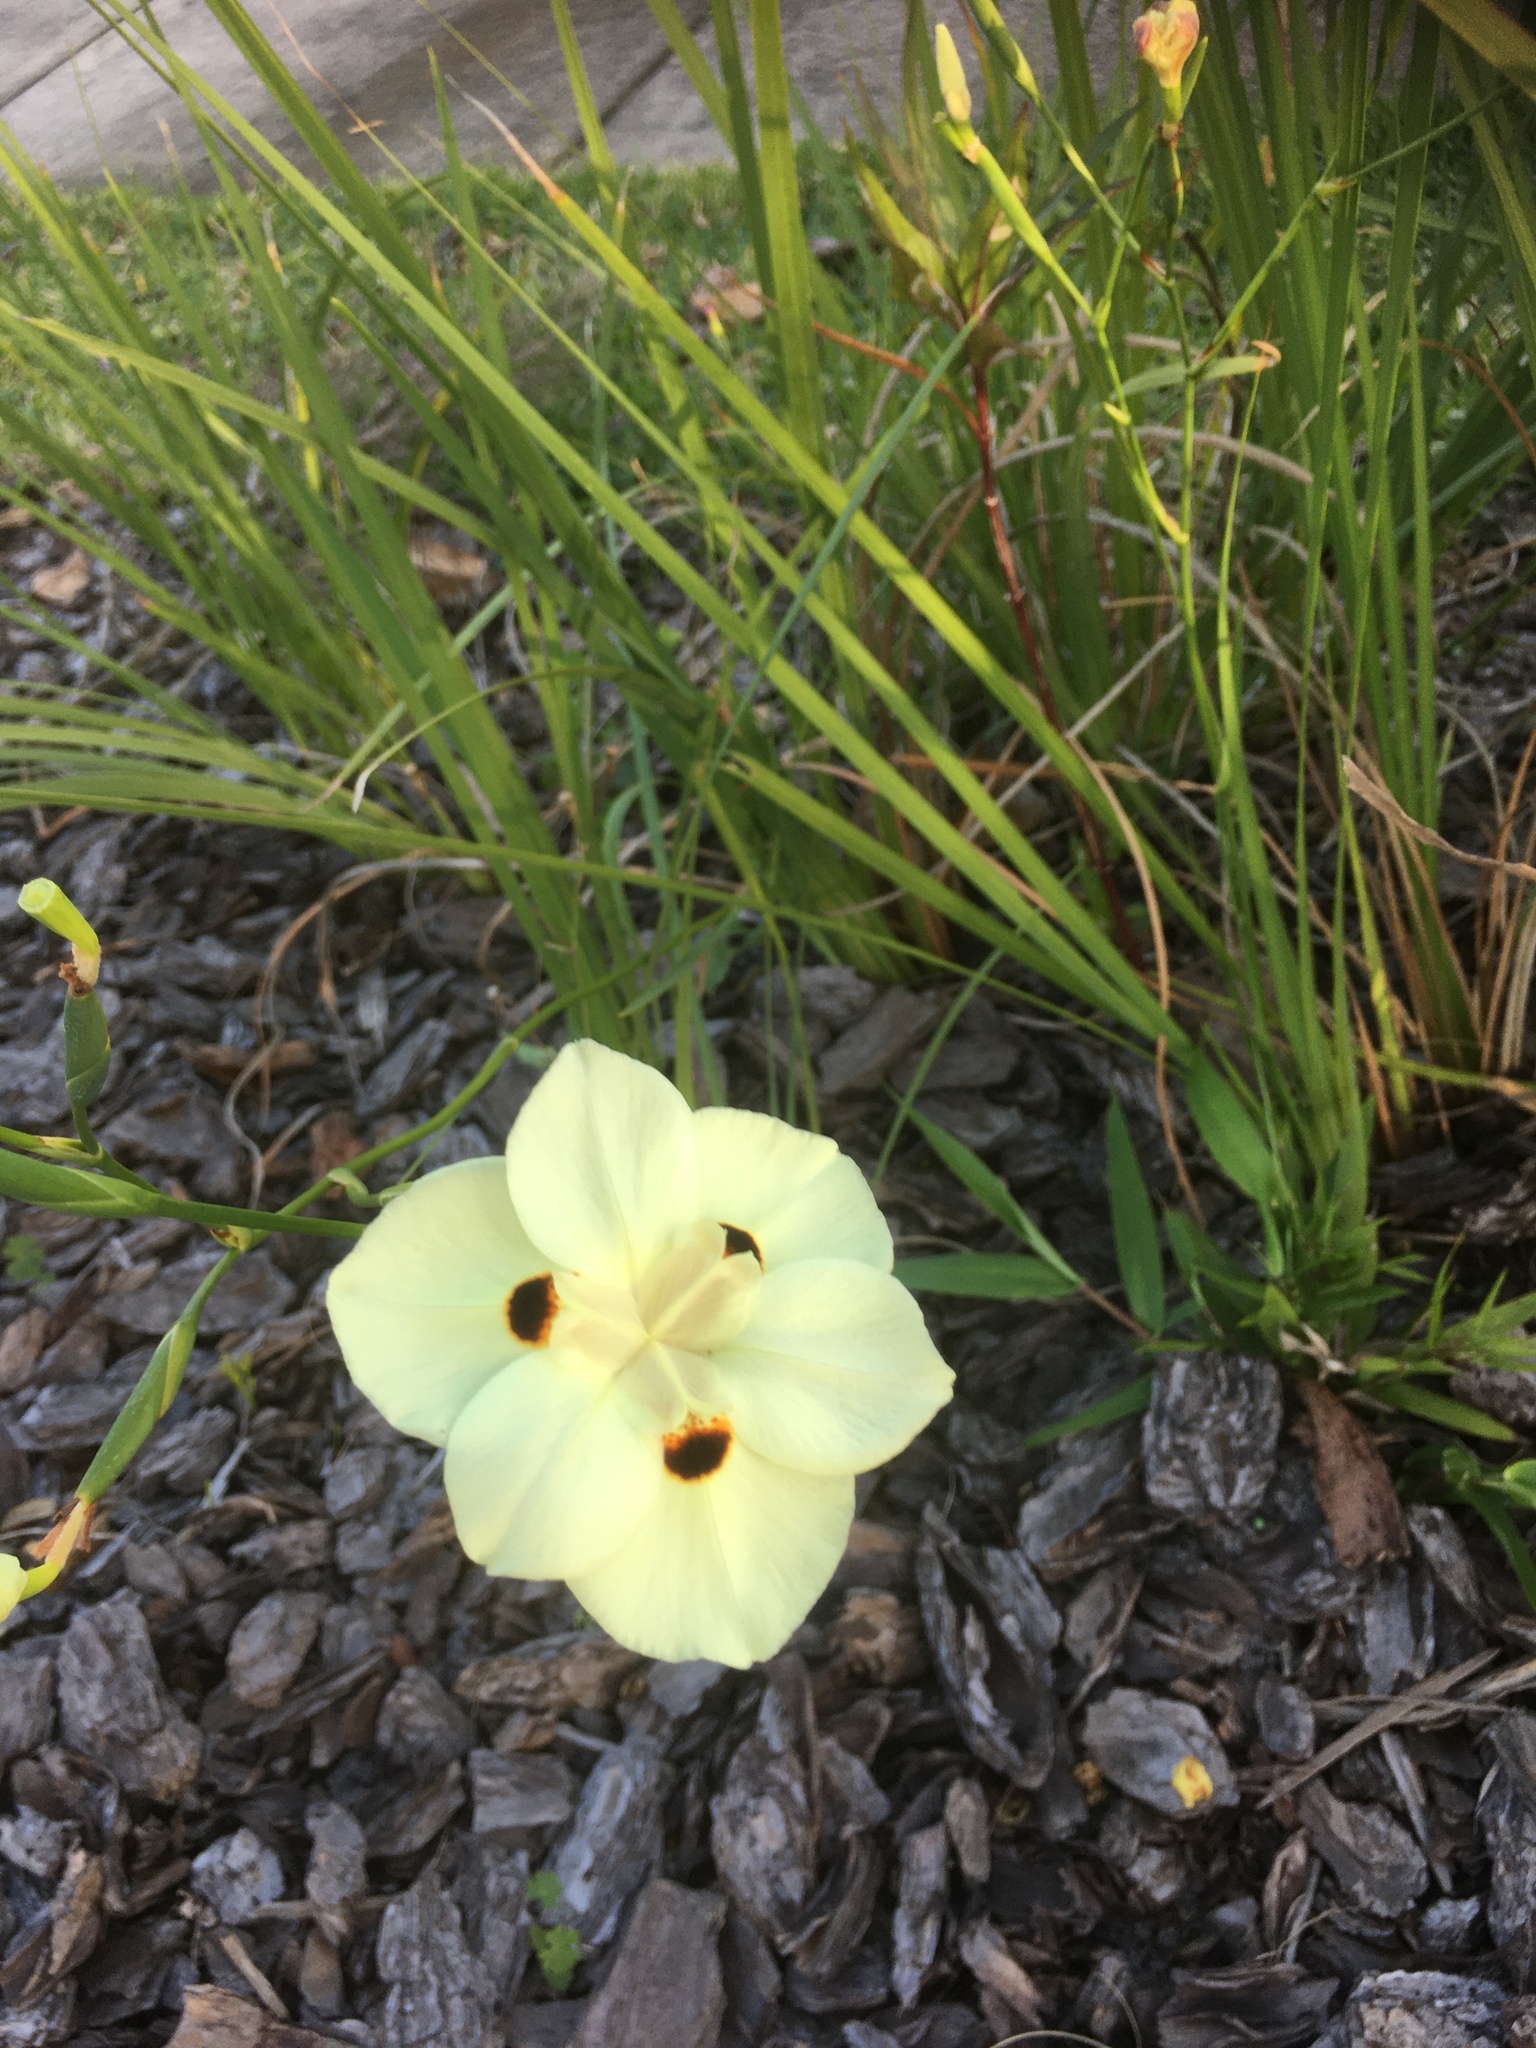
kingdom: Plantae
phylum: Tracheophyta
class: Liliopsida
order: Asparagales
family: Iridaceae
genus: Dietes
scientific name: Dietes bicolor
